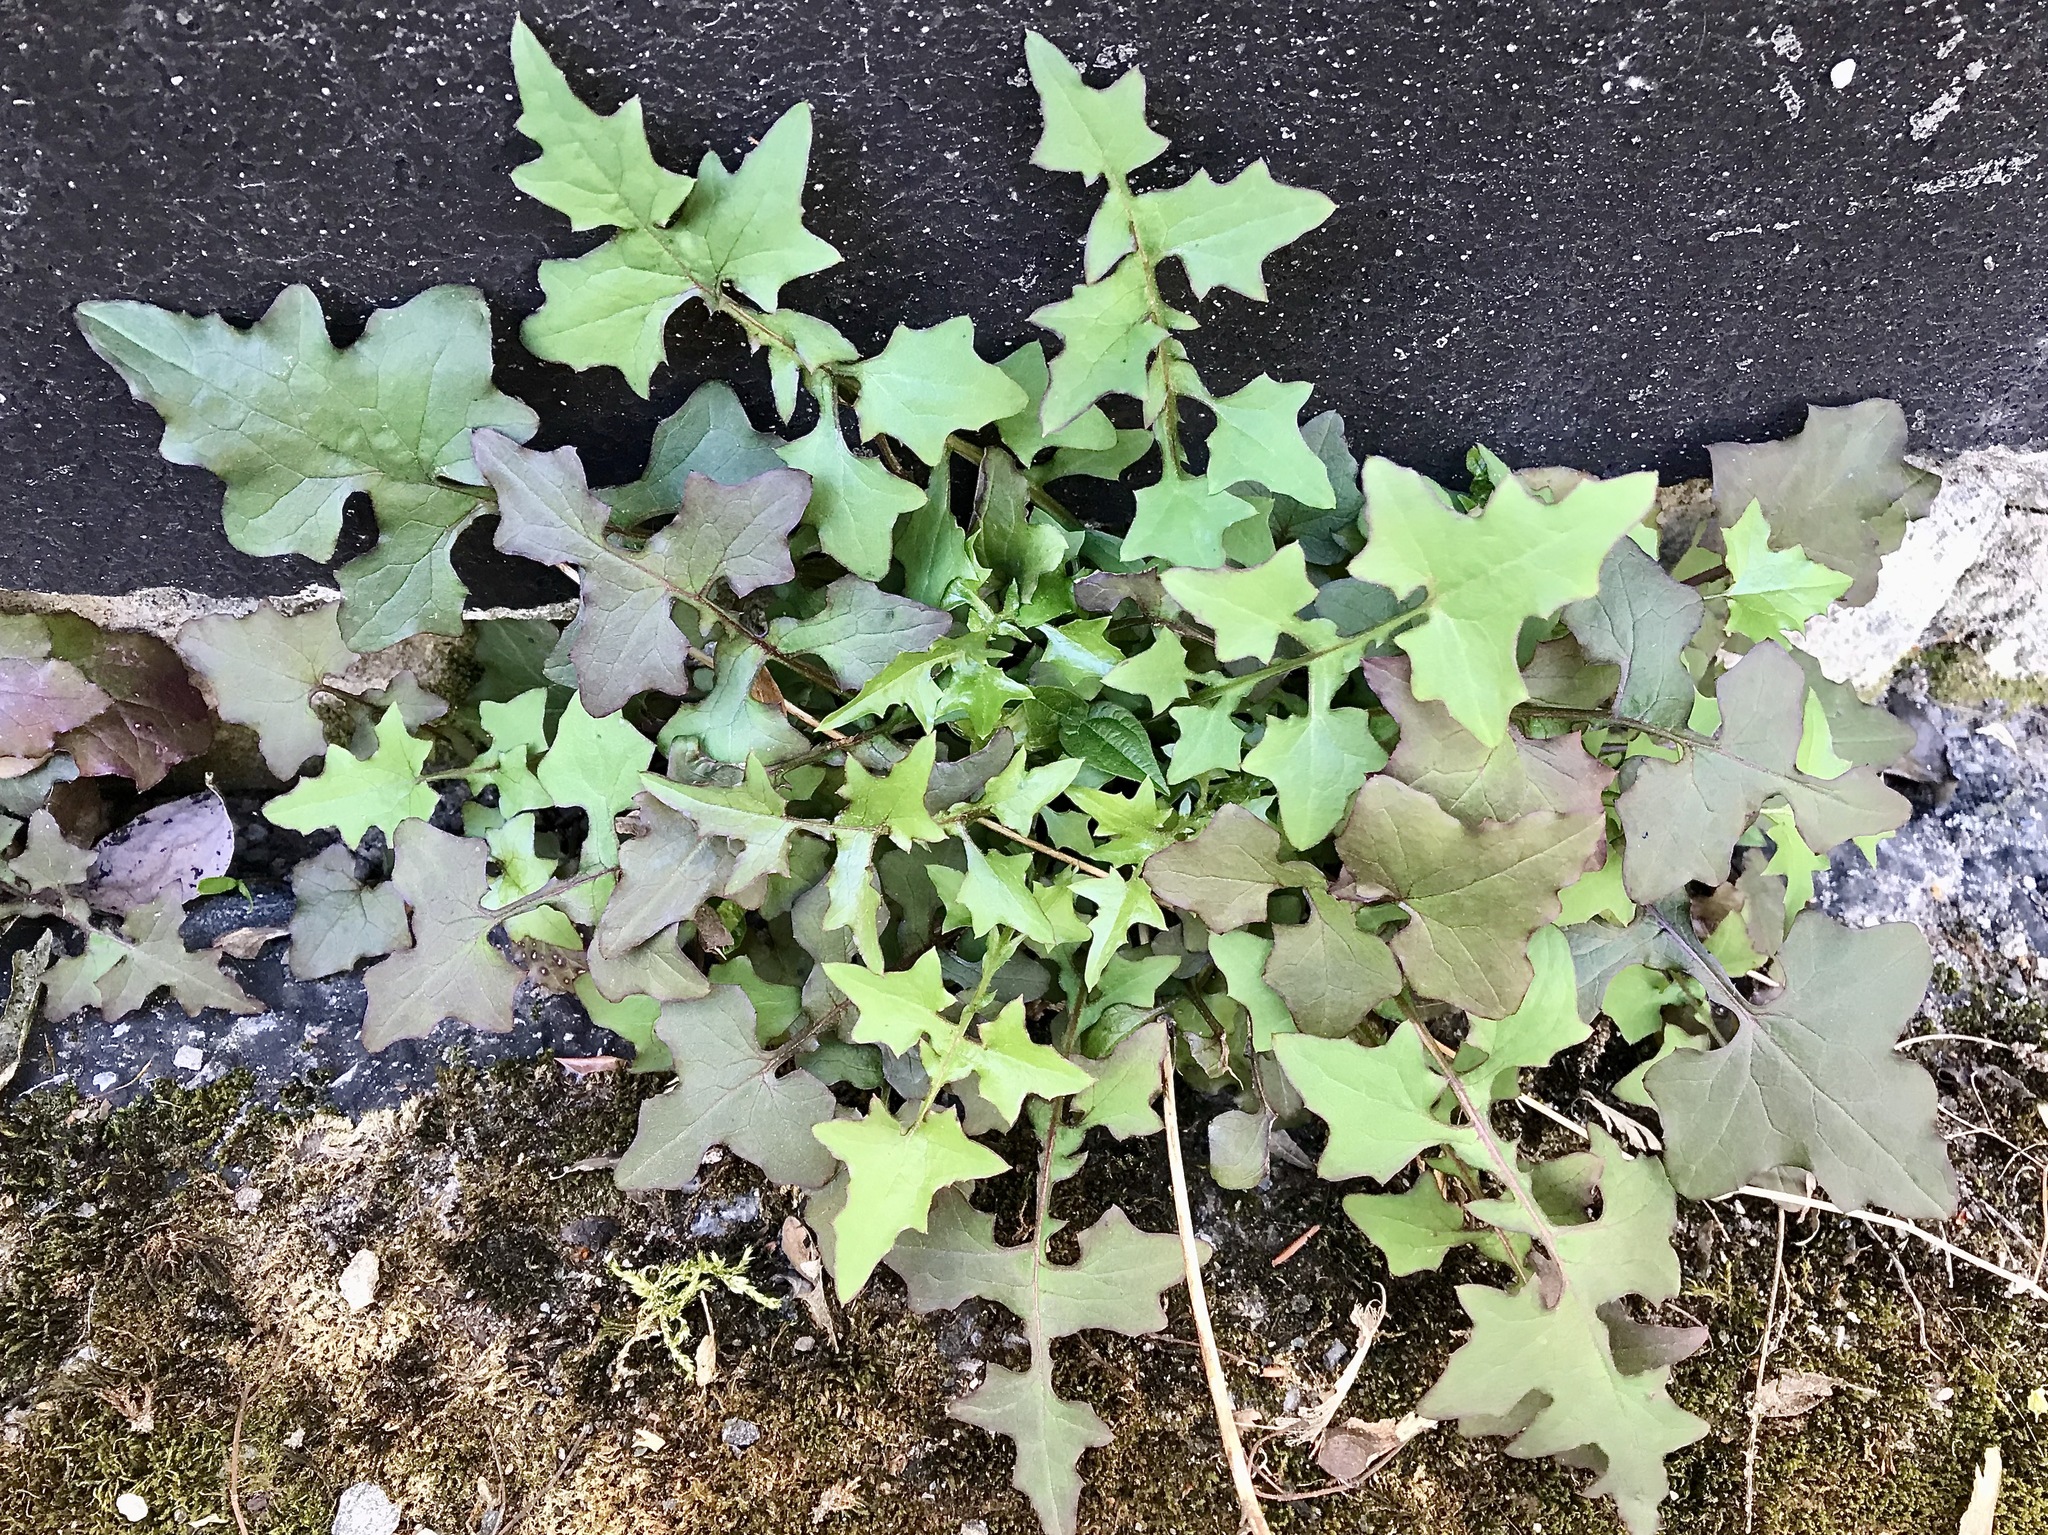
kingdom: Plantae
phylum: Tracheophyta
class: Magnoliopsida
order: Asterales
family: Asteraceae
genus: Mycelis
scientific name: Mycelis muralis
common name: Wall lettuce
